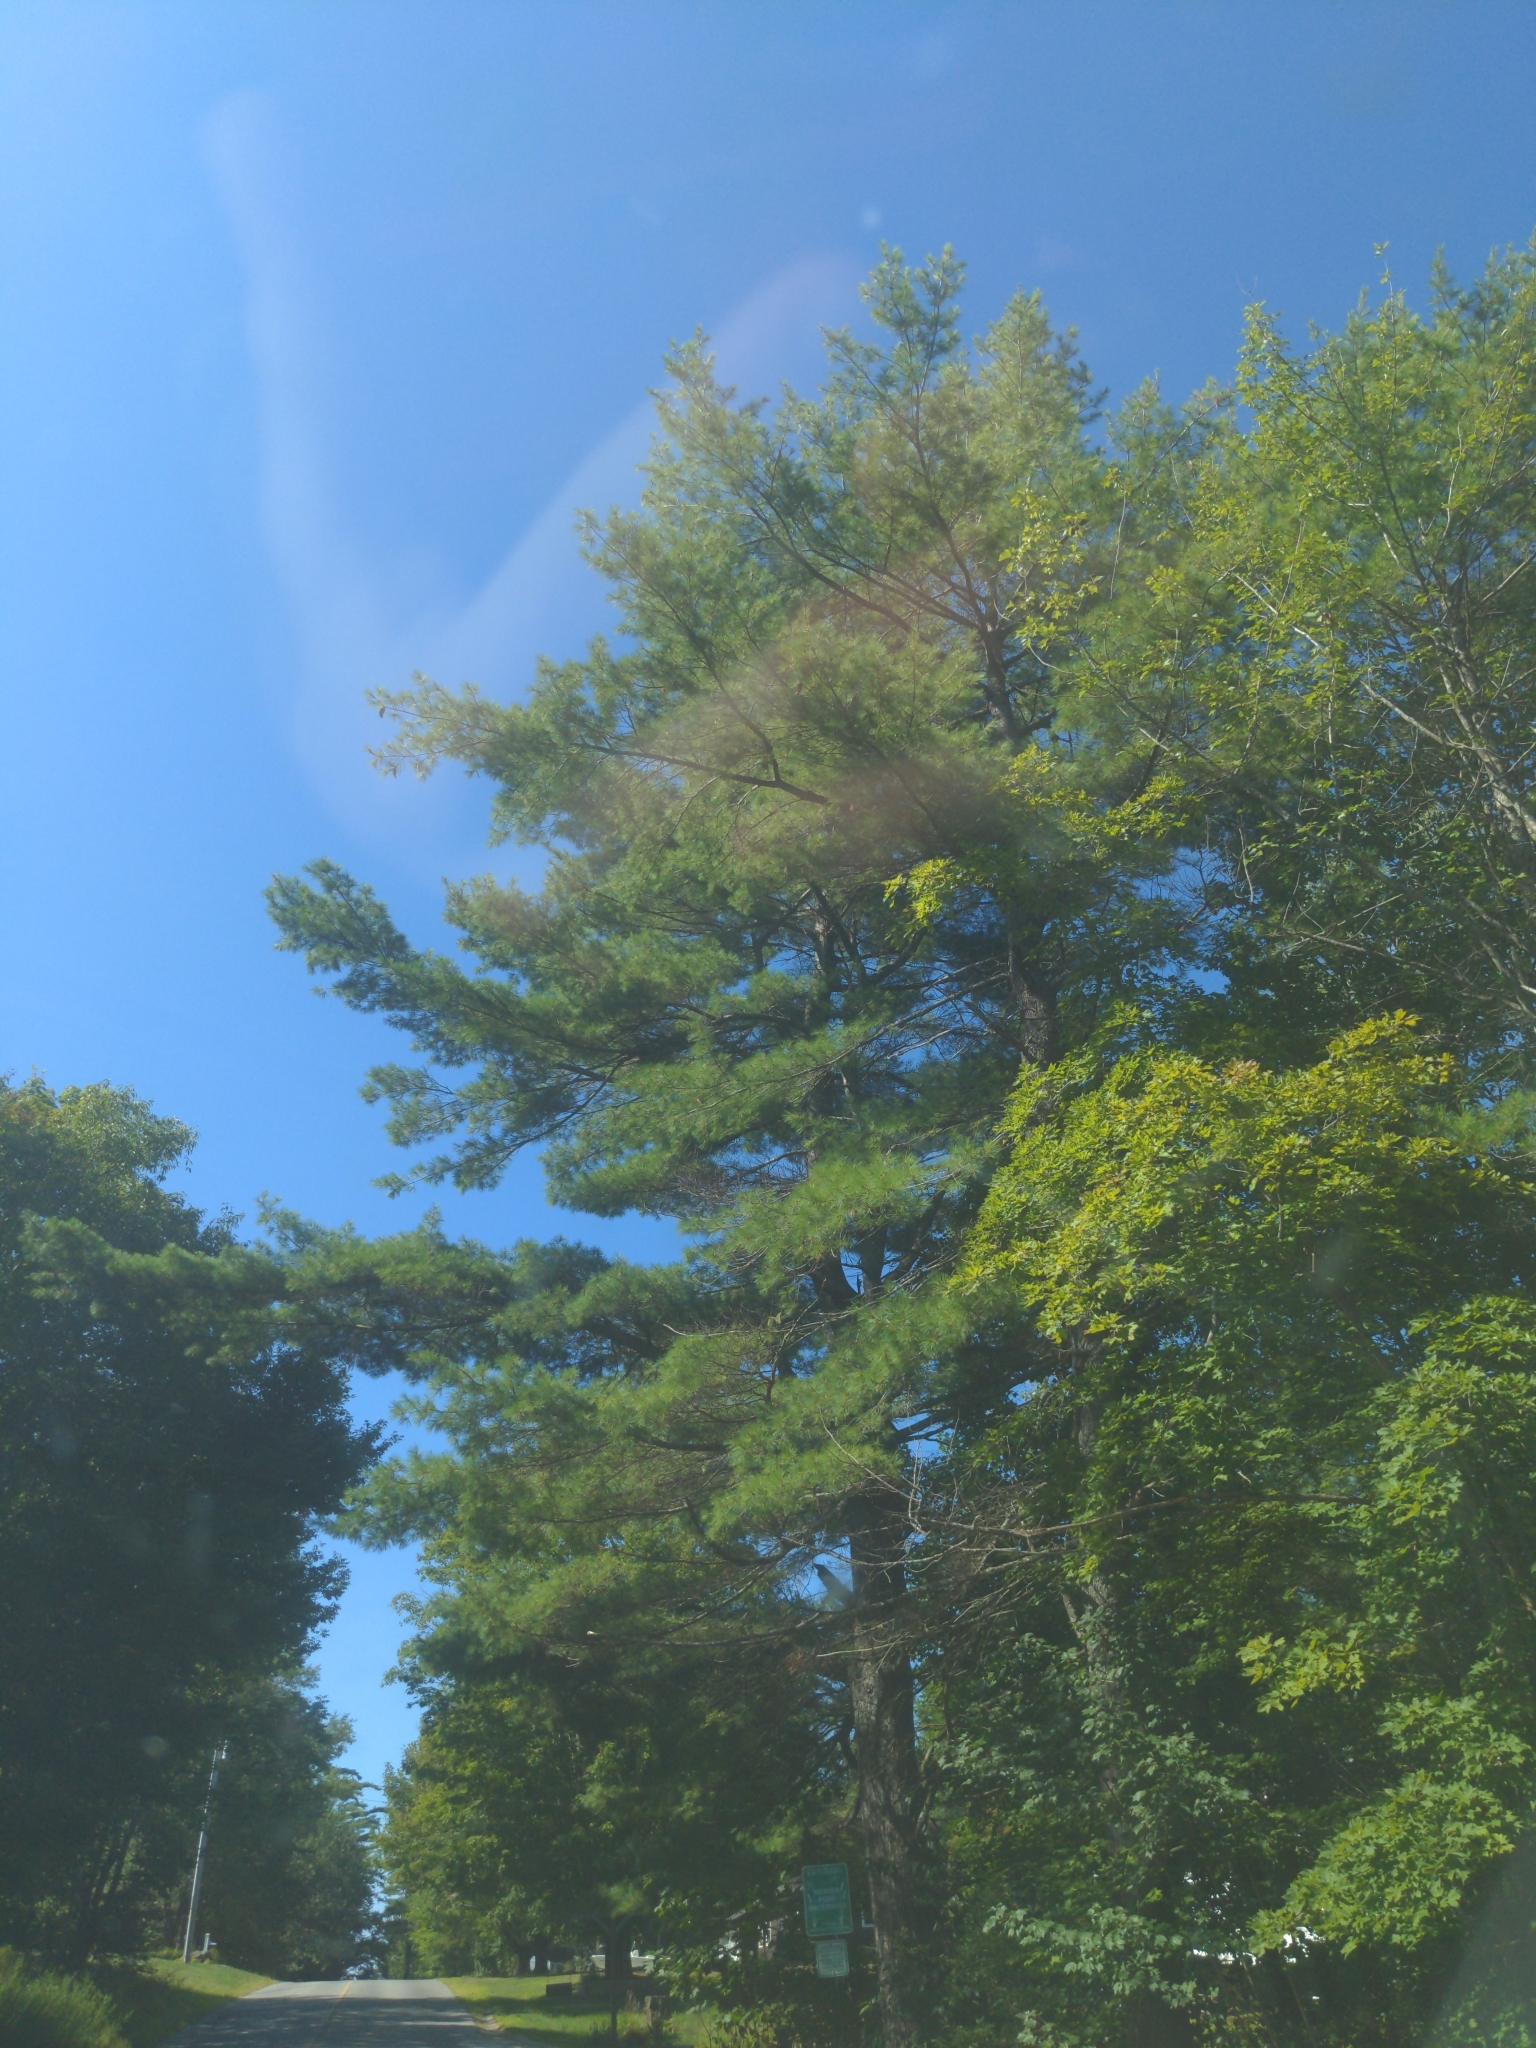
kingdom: Plantae
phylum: Tracheophyta
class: Pinopsida
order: Pinales
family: Pinaceae
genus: Pinus
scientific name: Pinus strobus
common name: Weymouth pine
